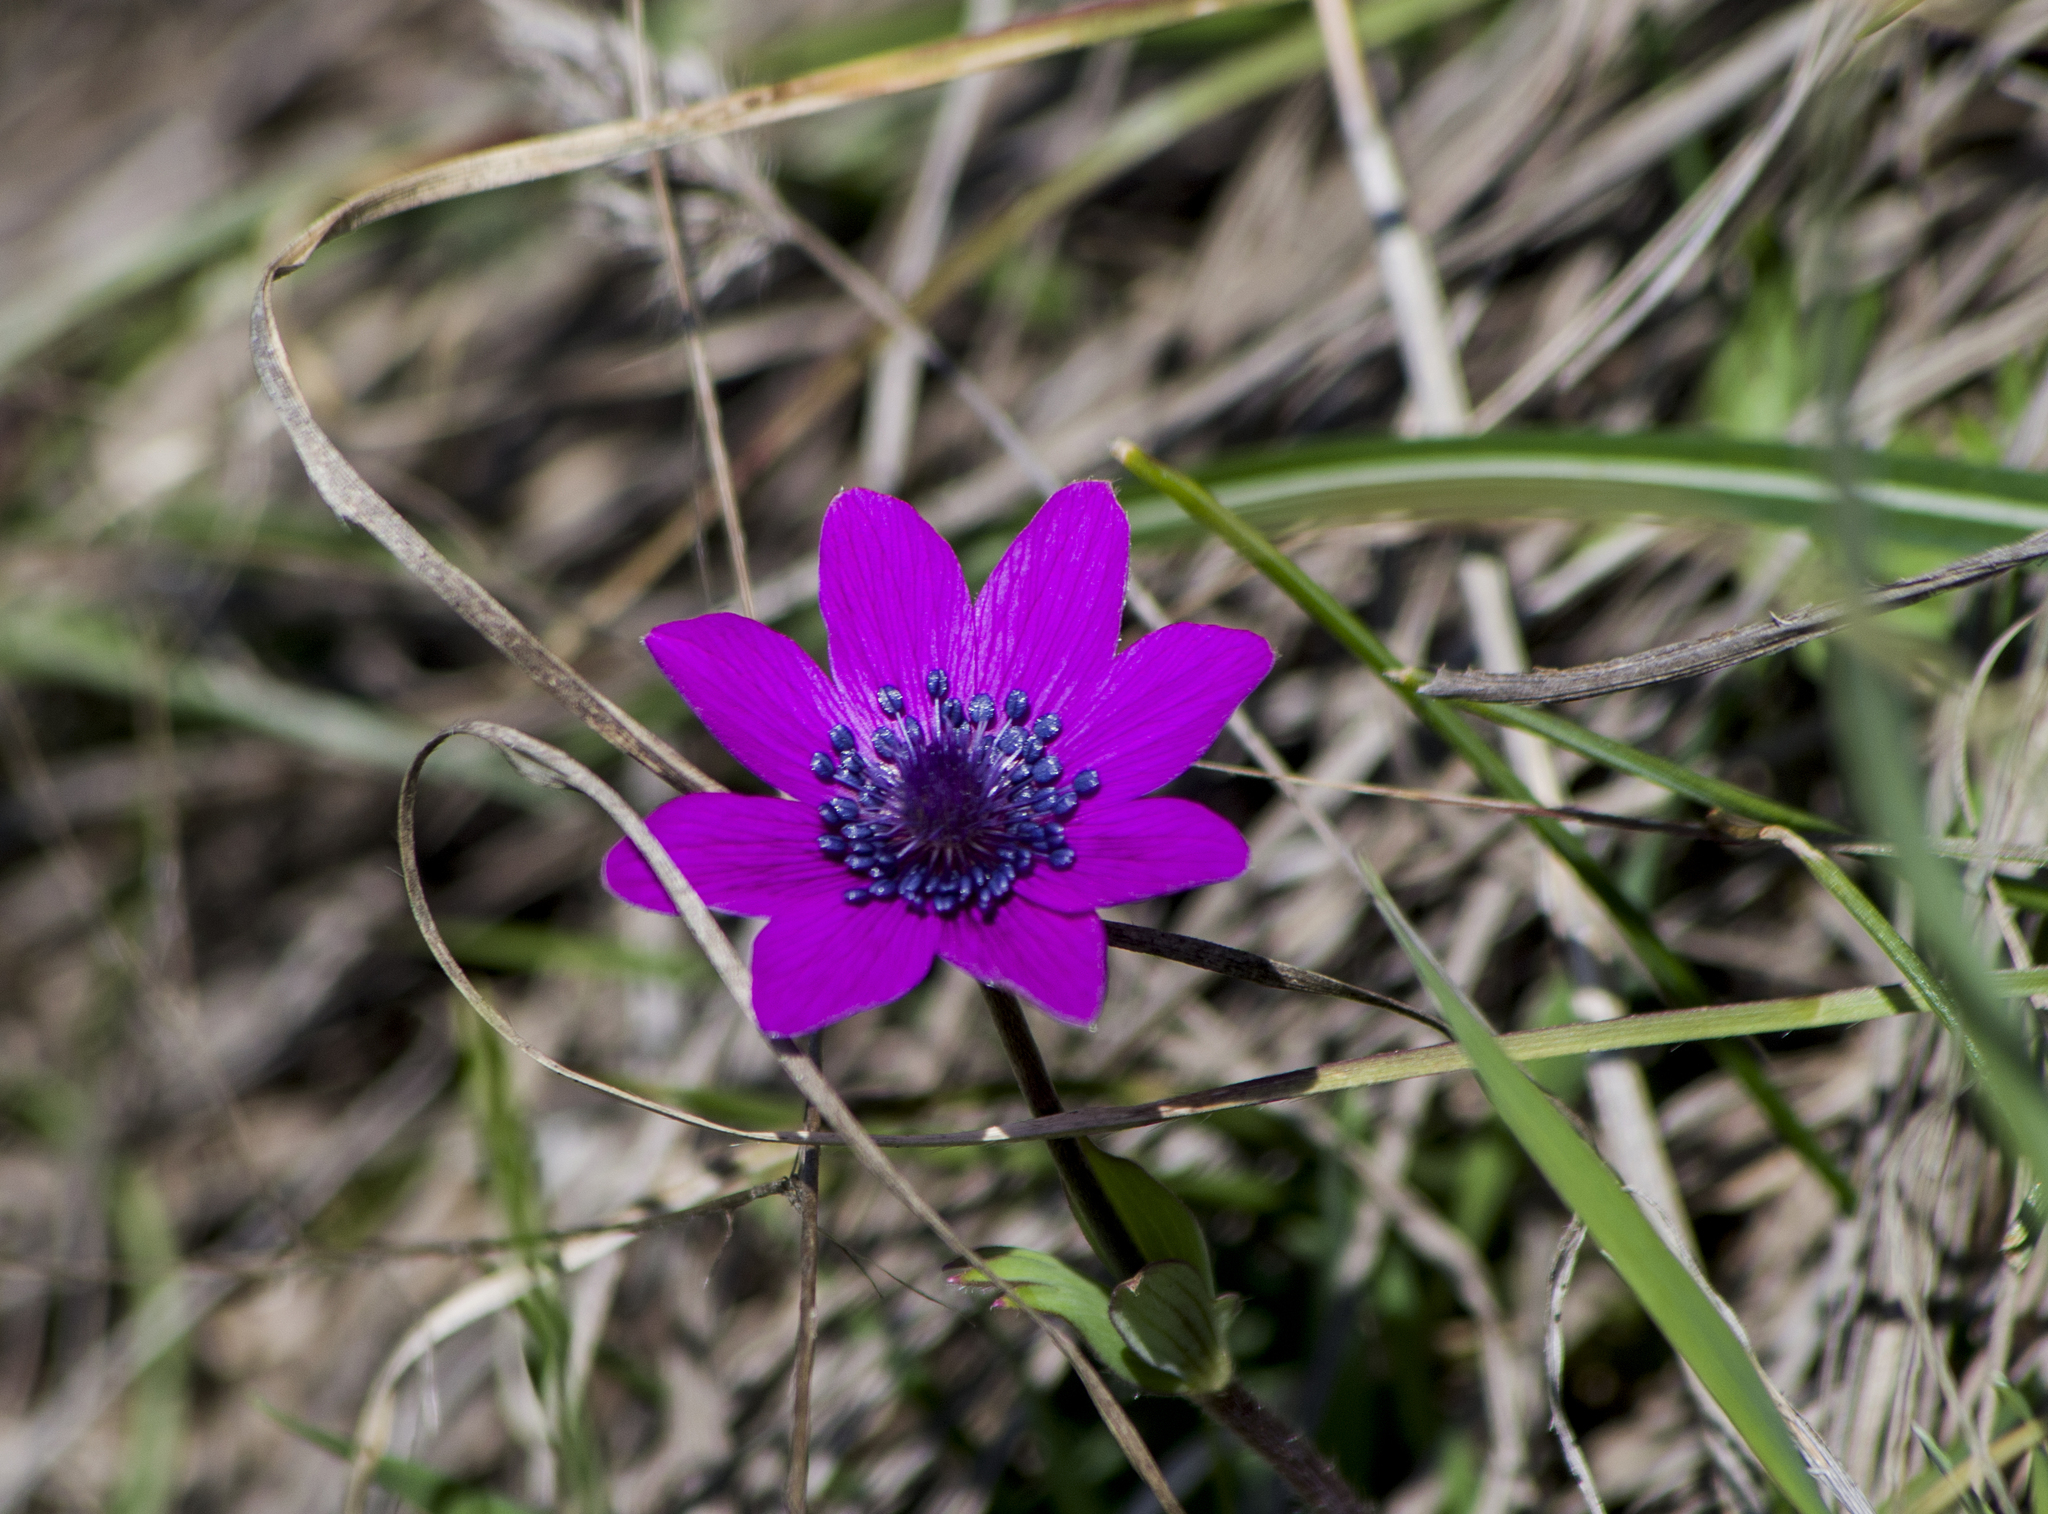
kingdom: Plantae
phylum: Tracheophyta
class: Magnoliopsida
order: Ranunculales
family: Ranunculaceae
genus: Anemone
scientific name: Anemone pavonina
